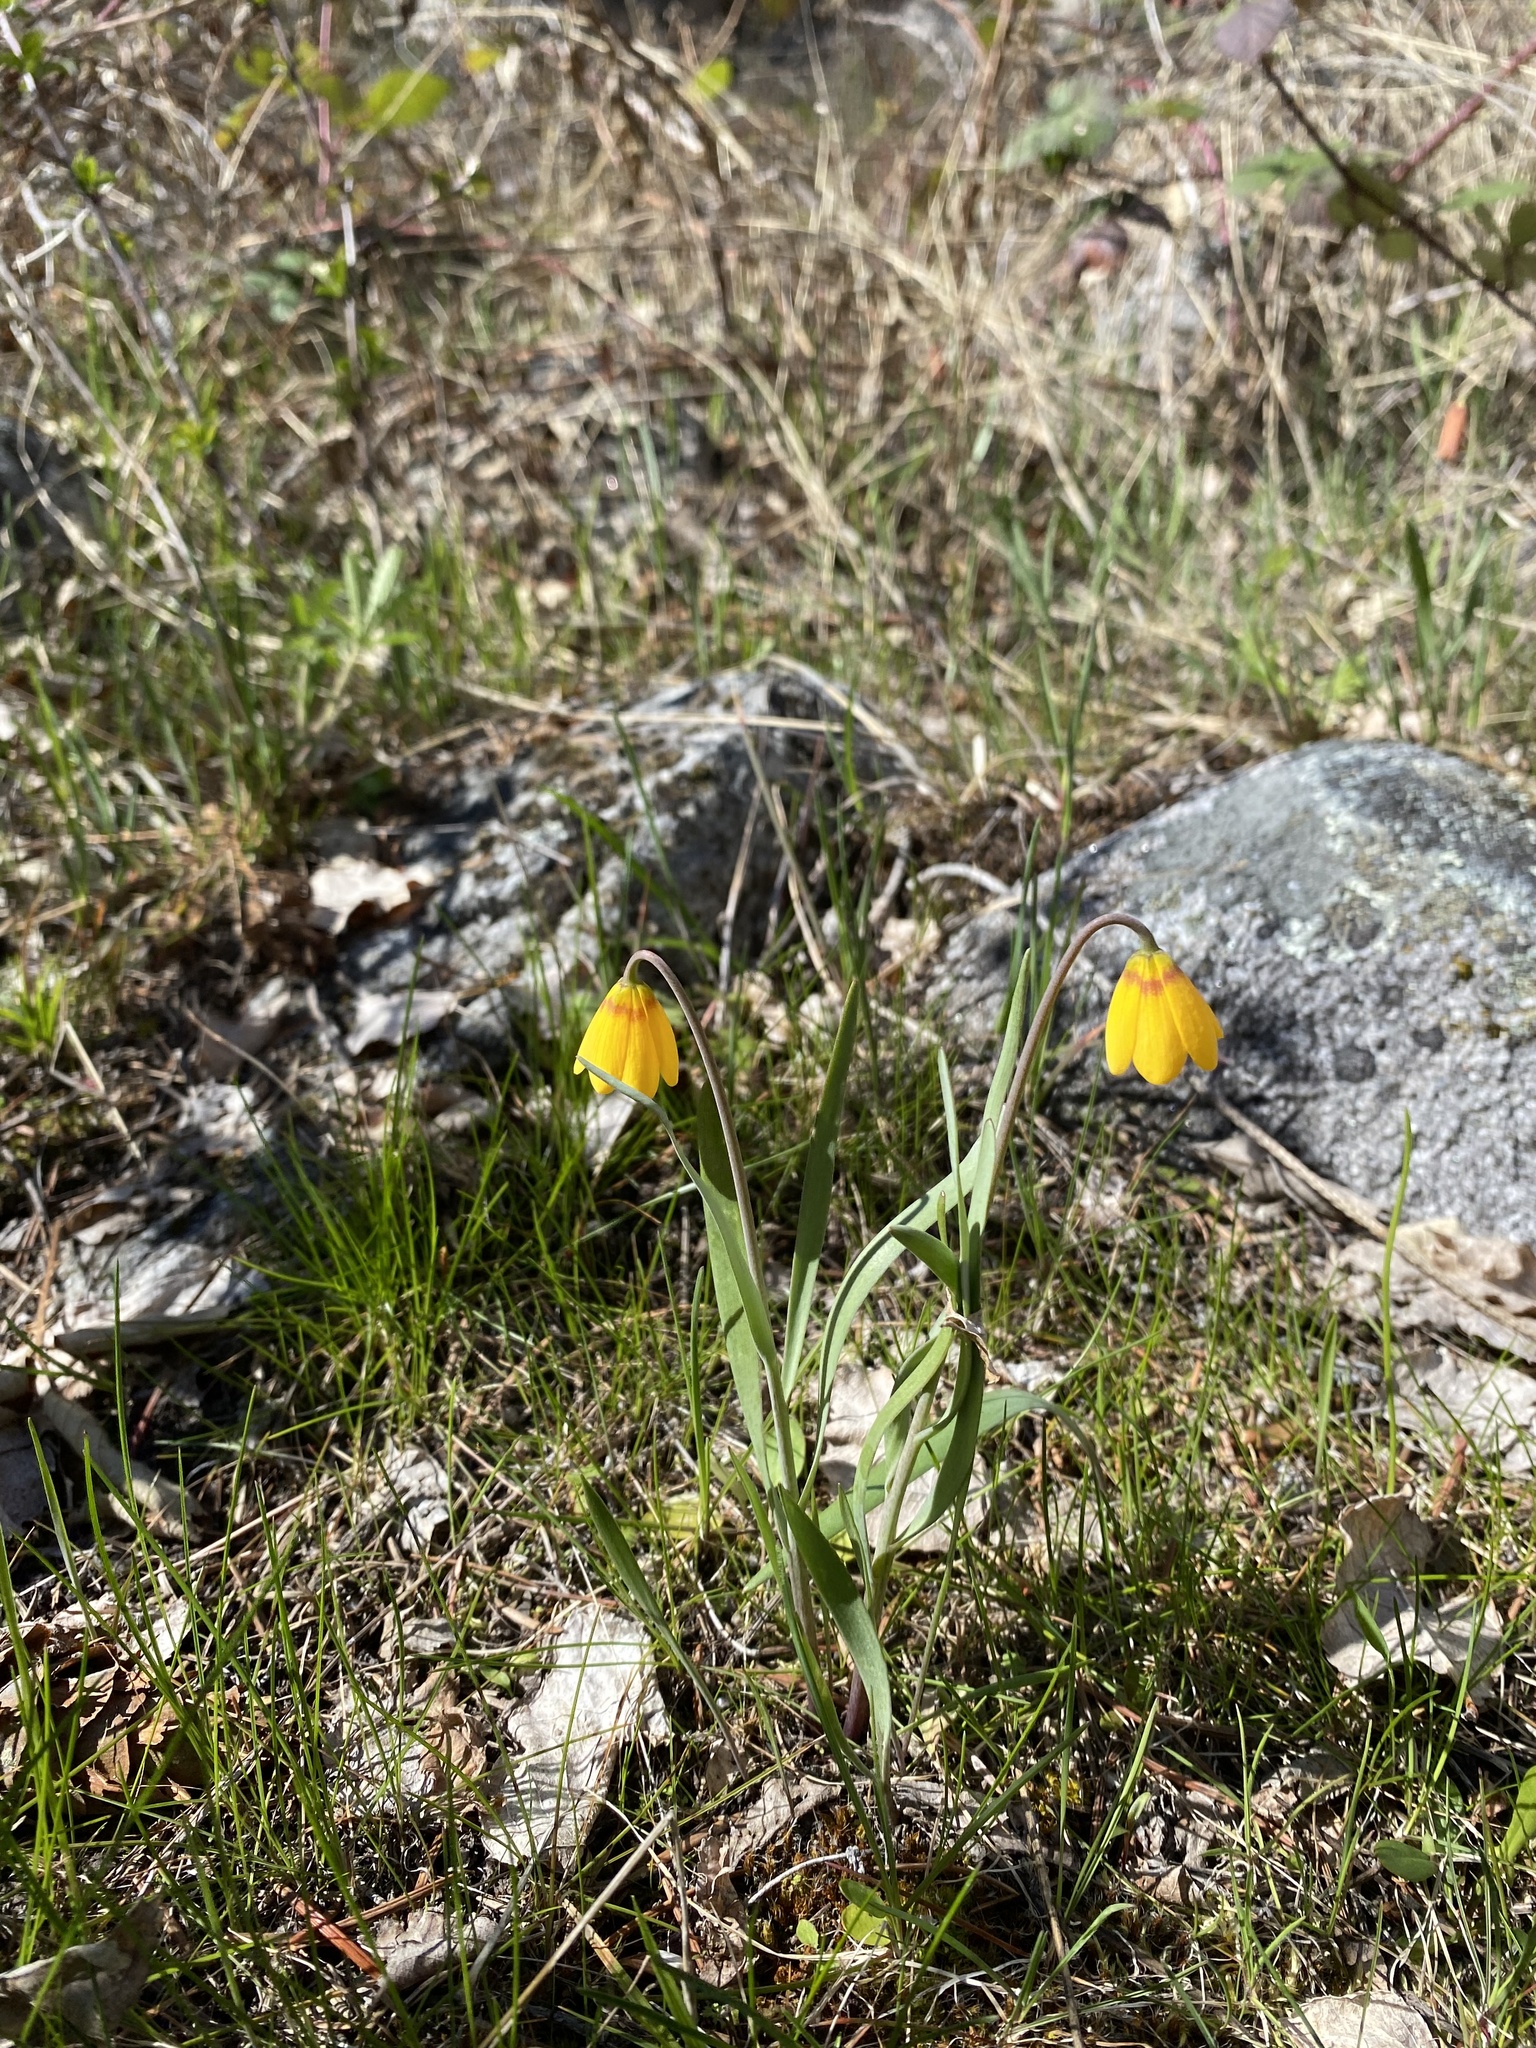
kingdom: Plantae
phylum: Tracheophyta
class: Liliopsida
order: Liliales
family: Liliaceae
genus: Fritillaria
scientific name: Fritillaria pudica
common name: Yellow fritillary
